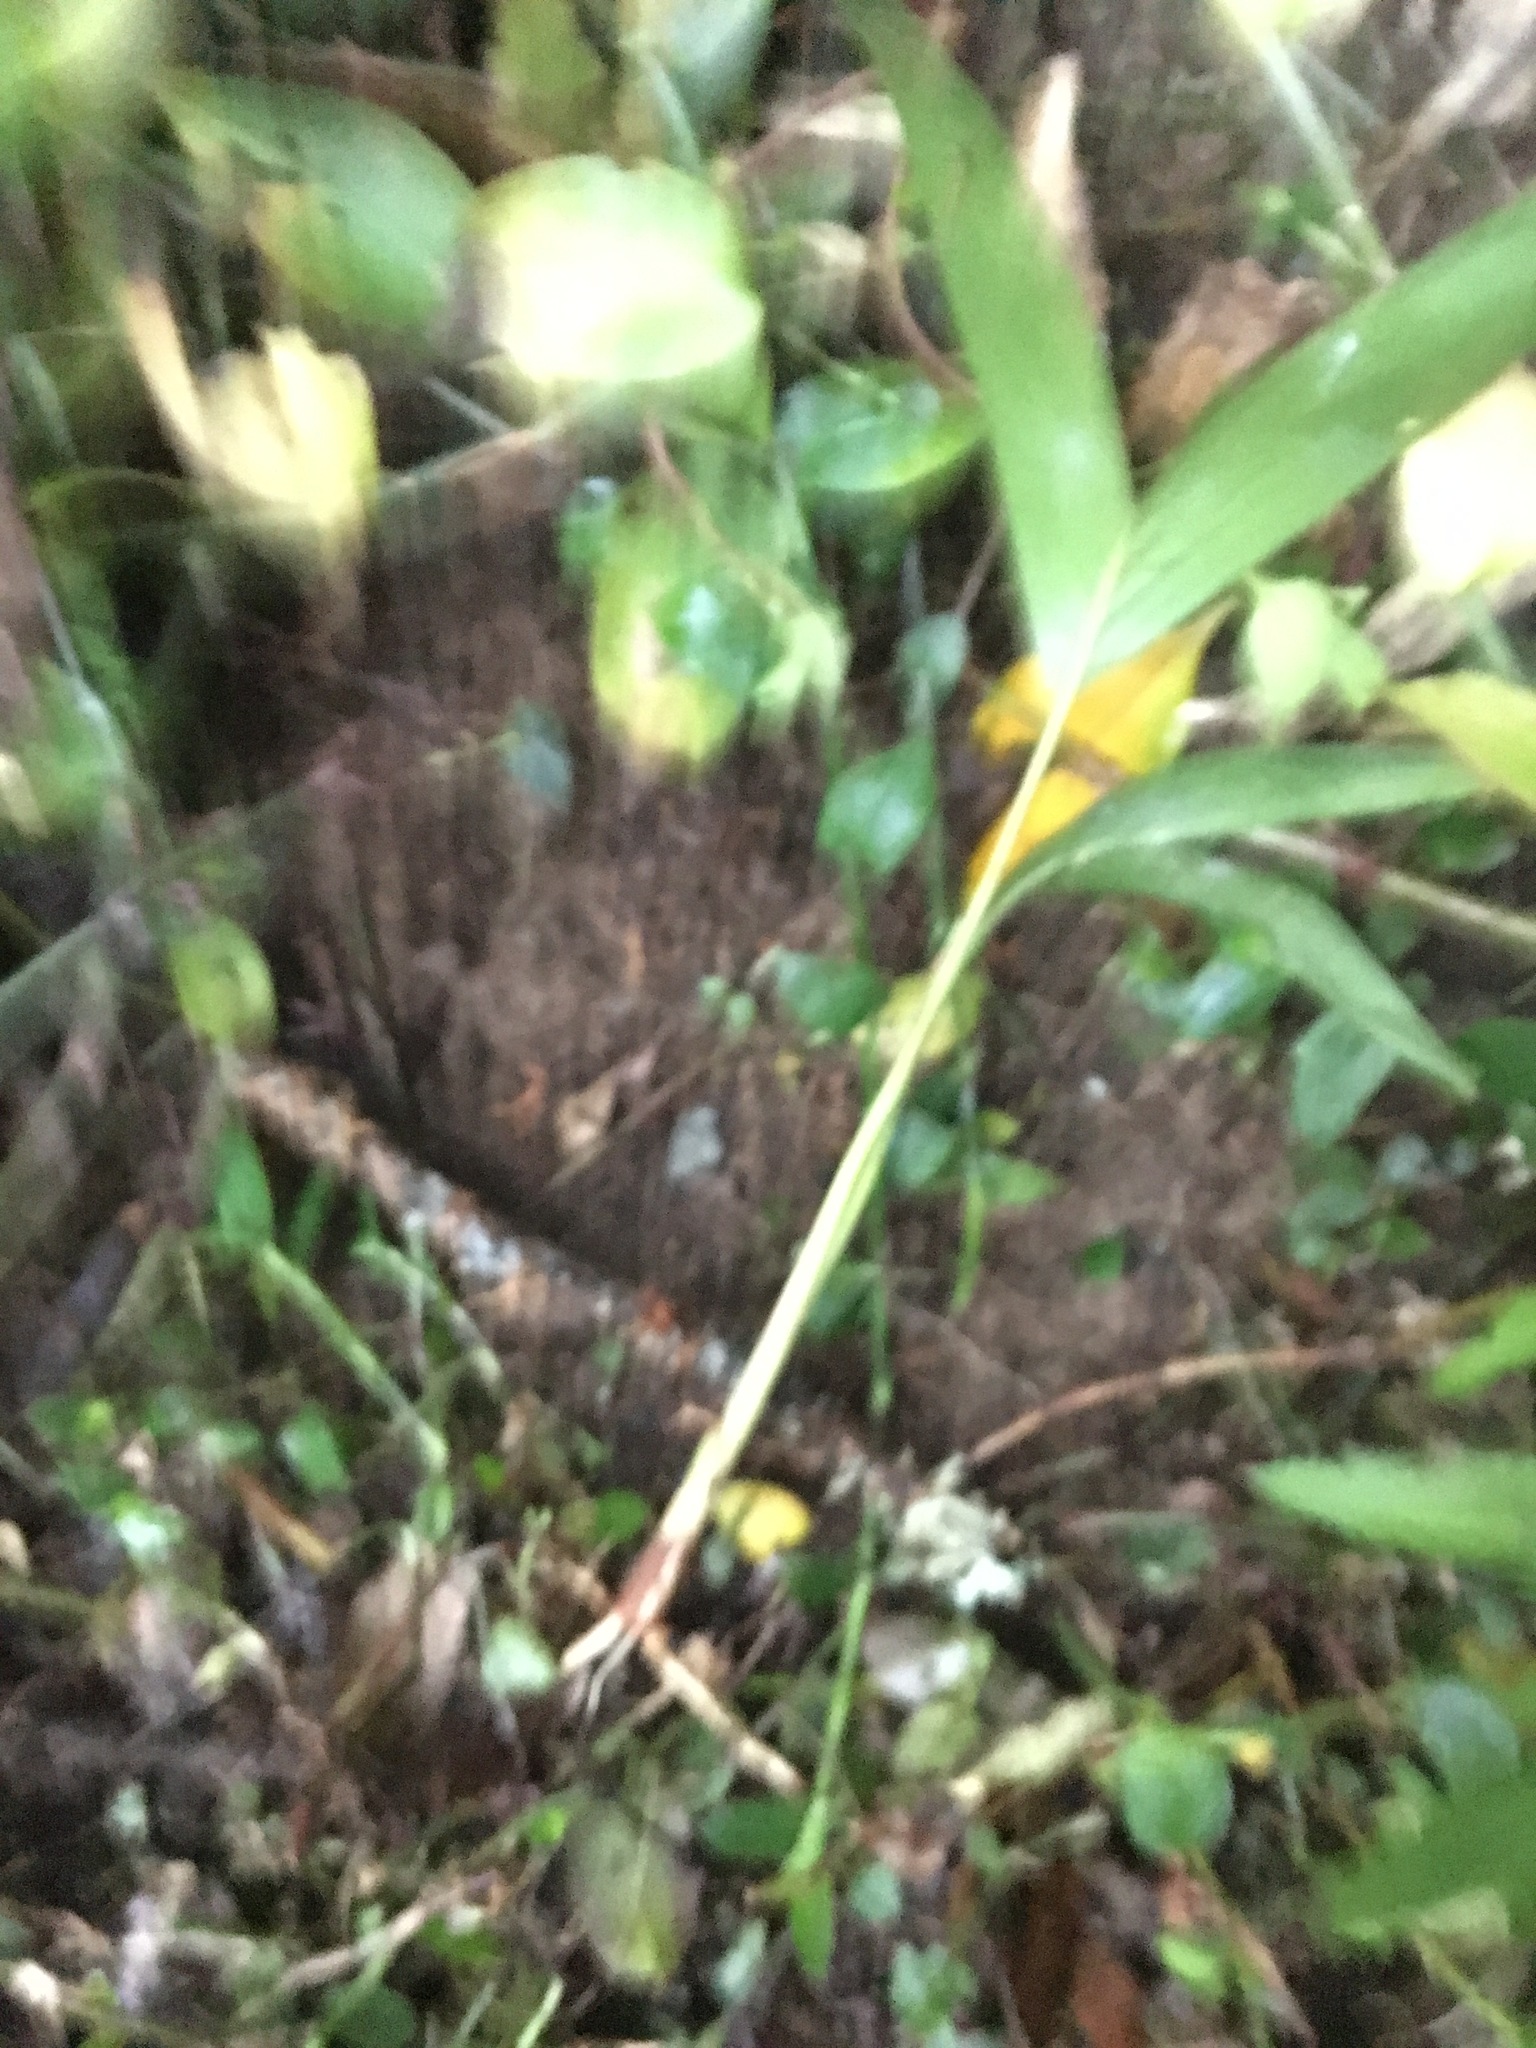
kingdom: Plantae
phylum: Tracheophyta
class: Liliopsida
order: Arecales
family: Arecaceae
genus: Archontophoenix
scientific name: Archontophoenix cunninghamiana
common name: Piccabeen bangalow palm
